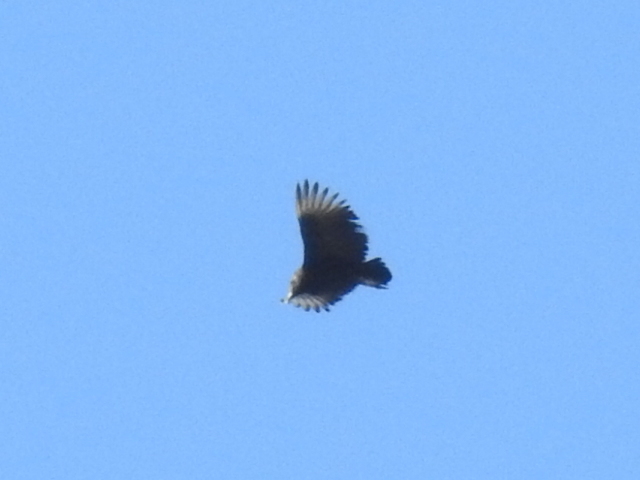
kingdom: Animalia
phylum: Chordata
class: Aves
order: Accipitriformes
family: Cathartidae
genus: Coragyps
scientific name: Coragyps atratus
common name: Black vulture
